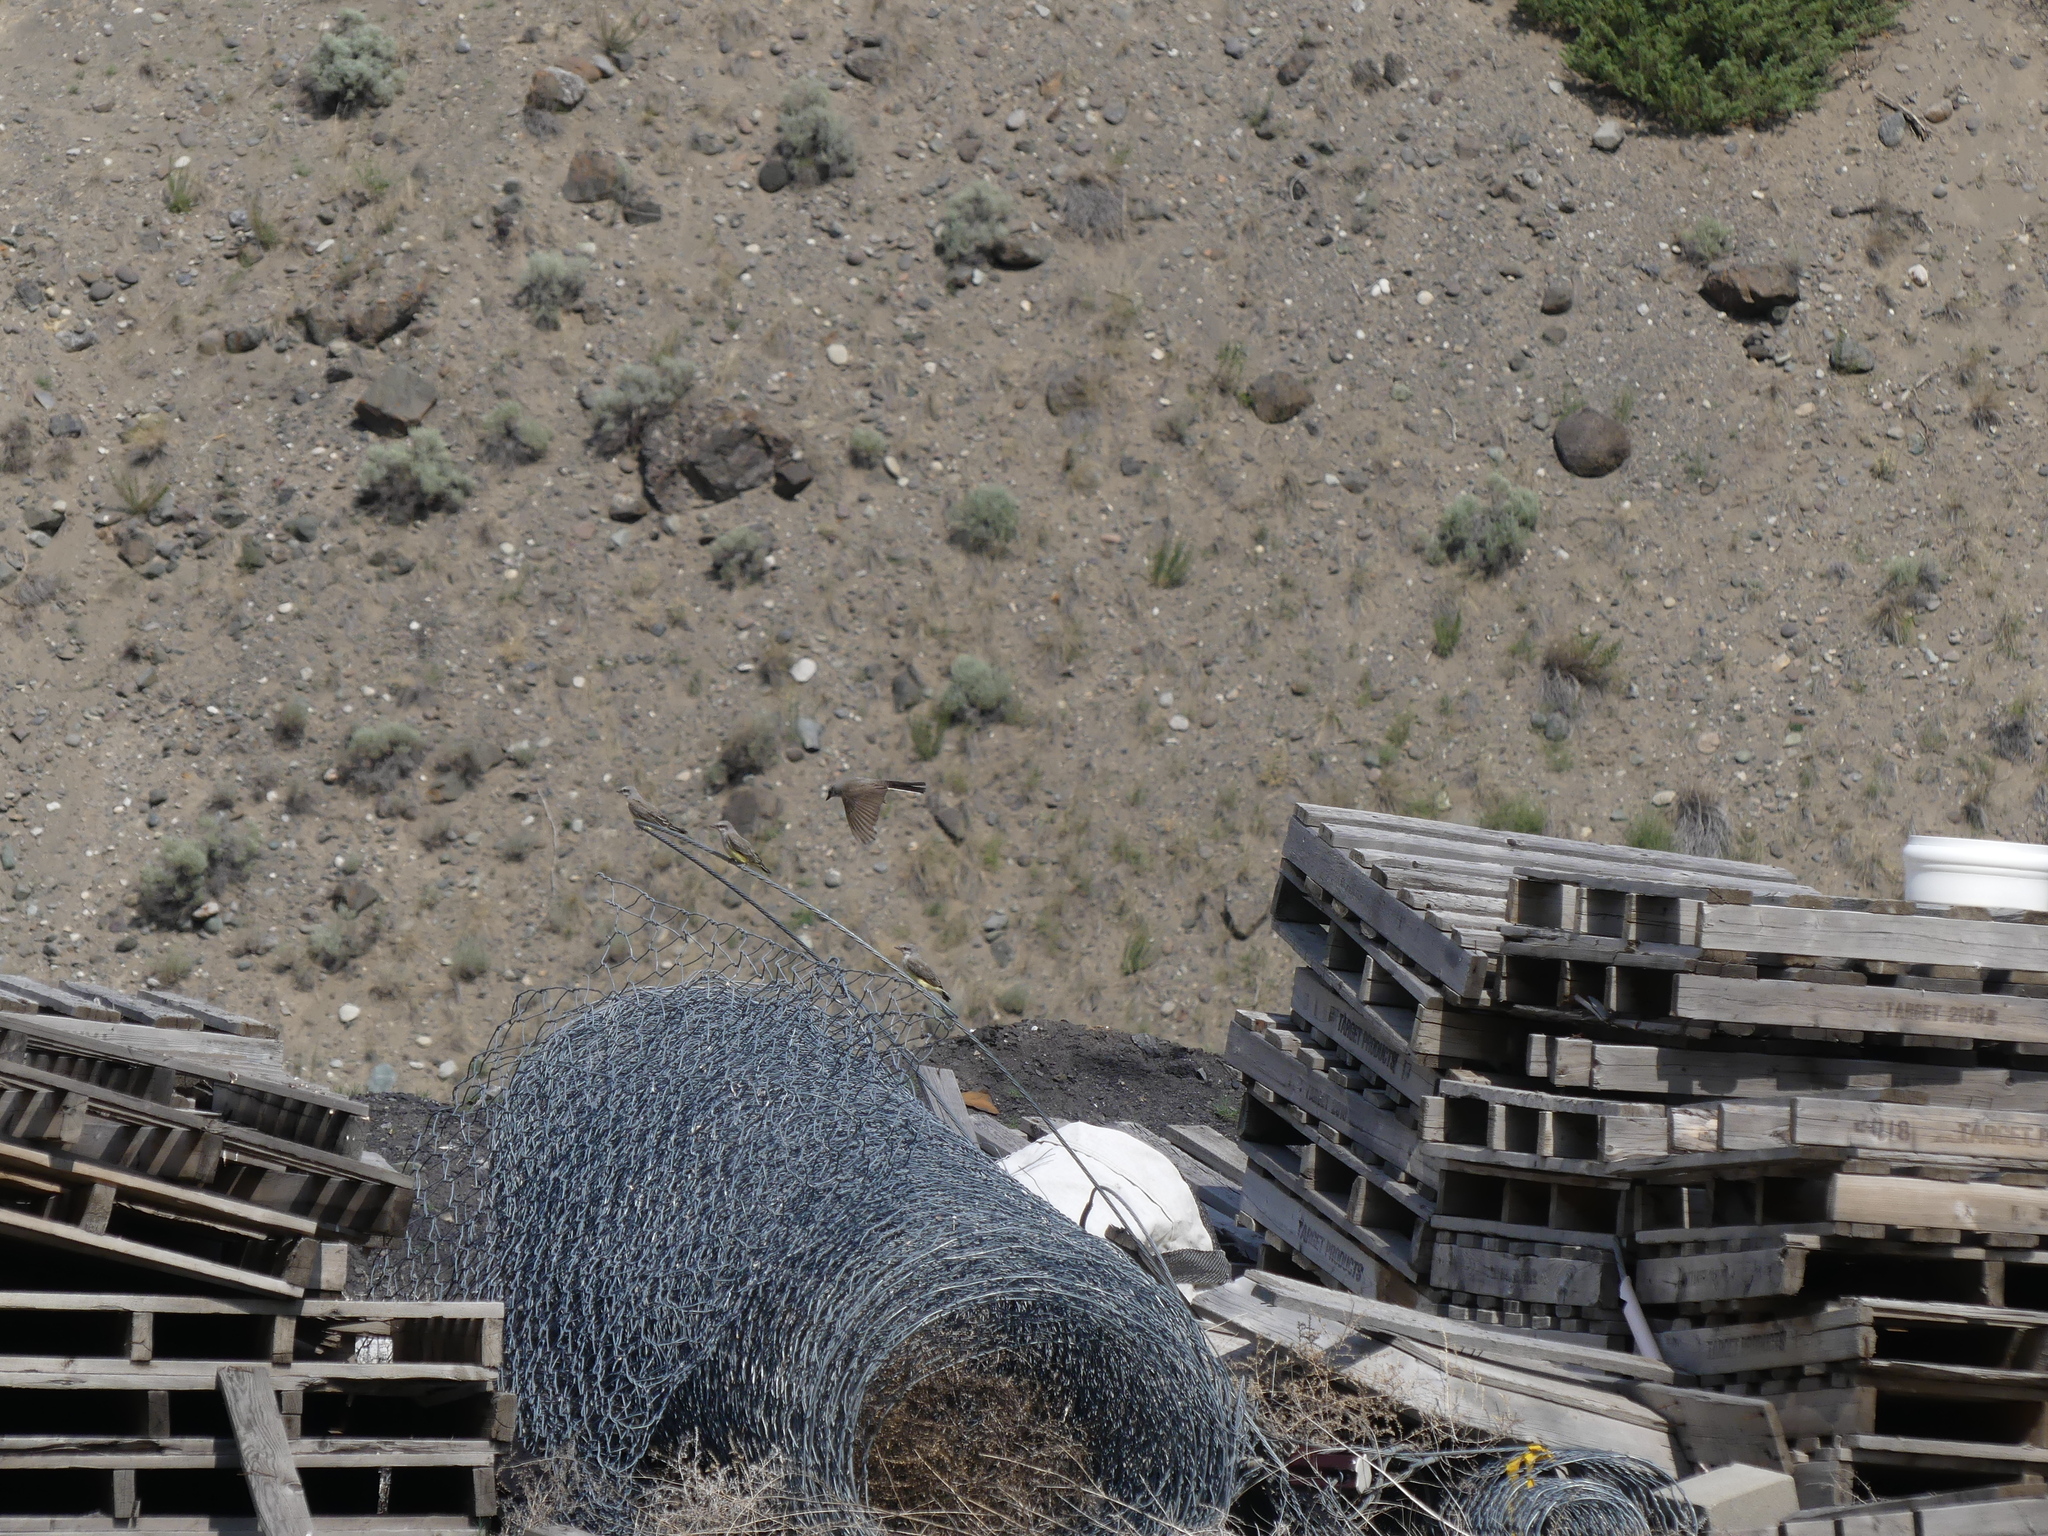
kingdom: Animalia
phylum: Chordata
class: Aves
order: Passeriformes
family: Tyrannidae
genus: Tyrannus
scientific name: Tyrannus verticalis
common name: Western kingbird
